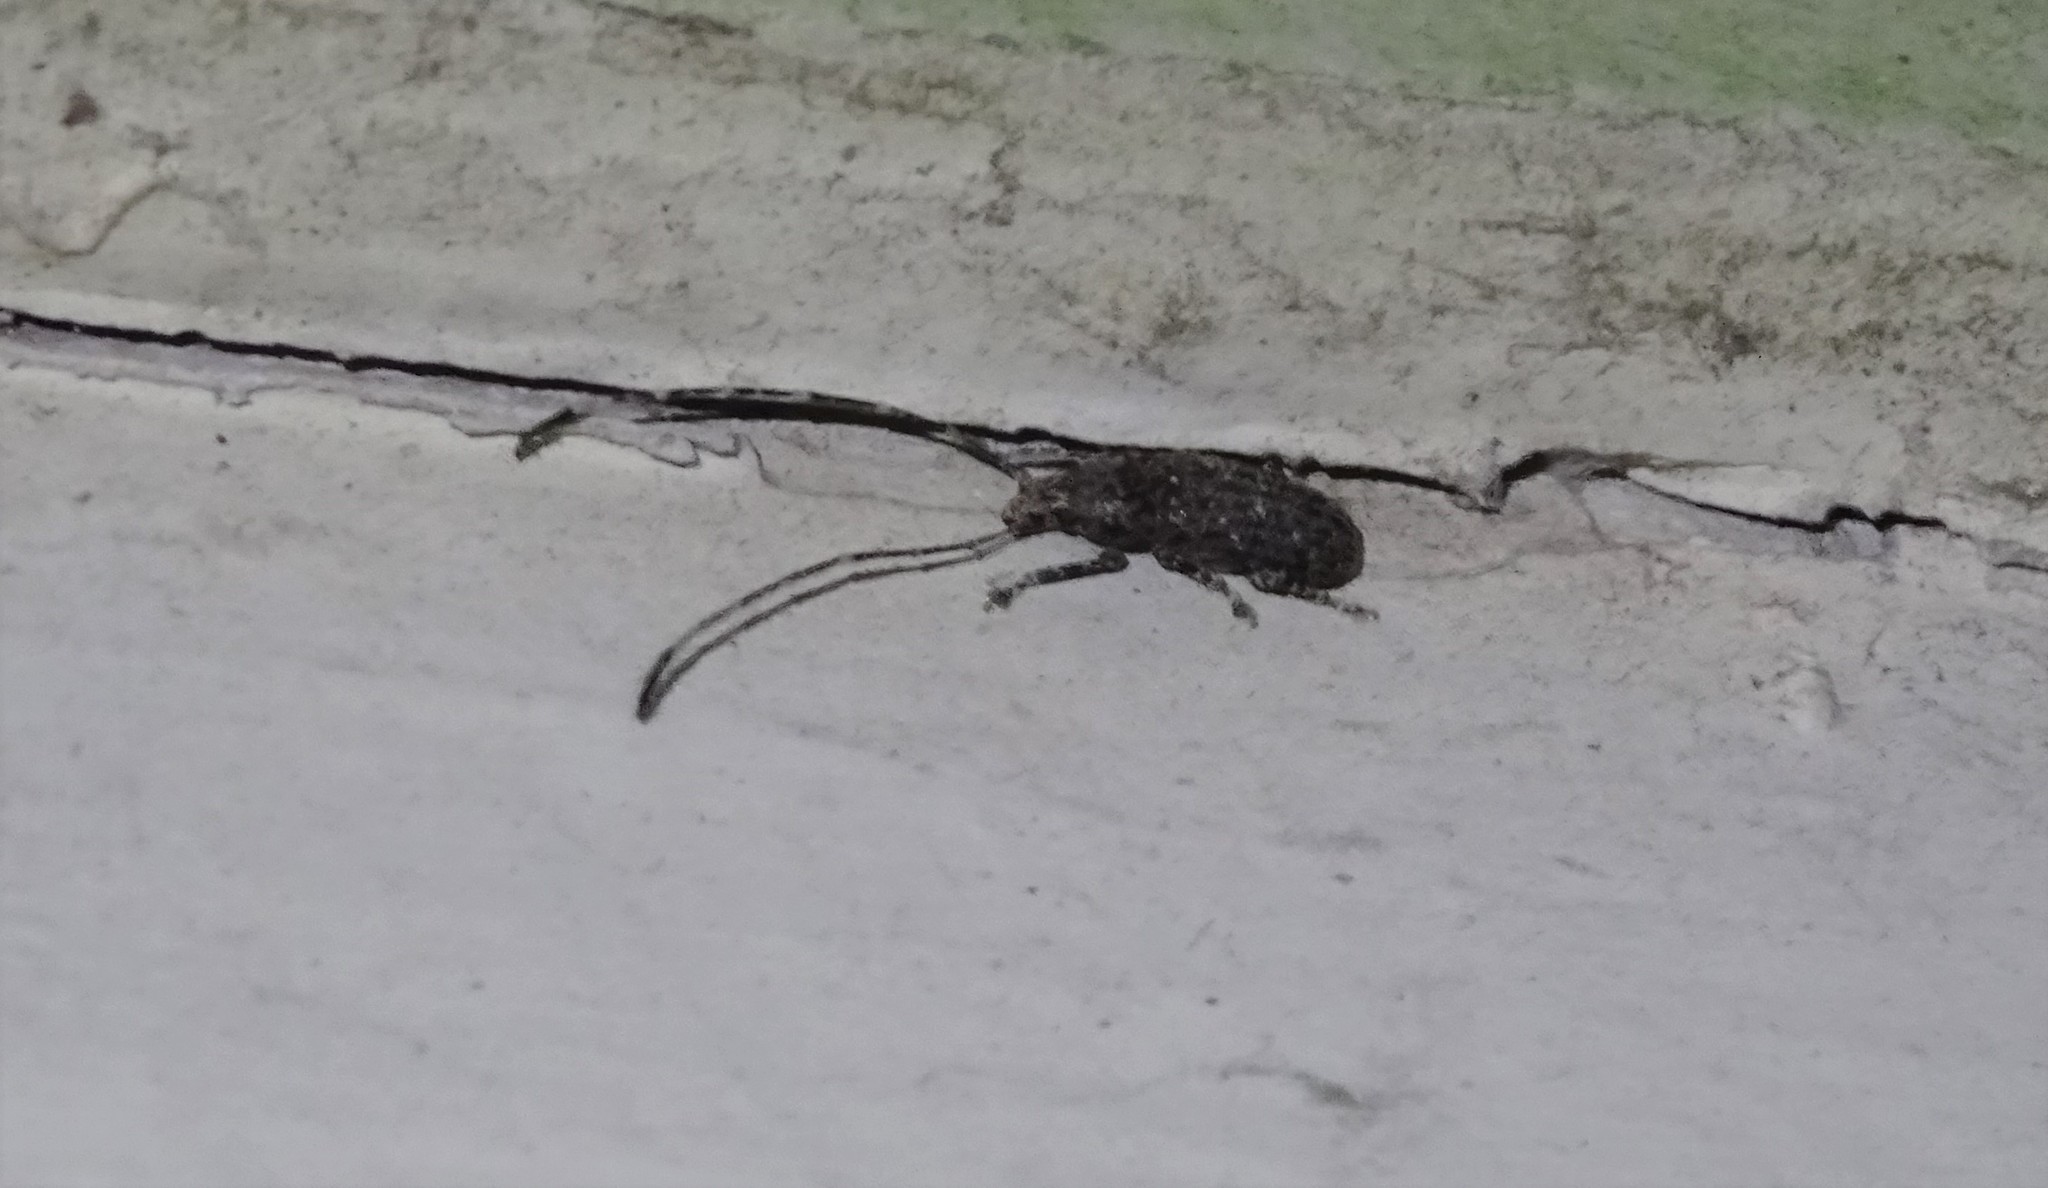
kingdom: Animalia
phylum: Arthropoda
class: Insecta
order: Coleoptera
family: Anthribidae
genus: Phoenicobiella
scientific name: Phoenicobiella chamaeropis
